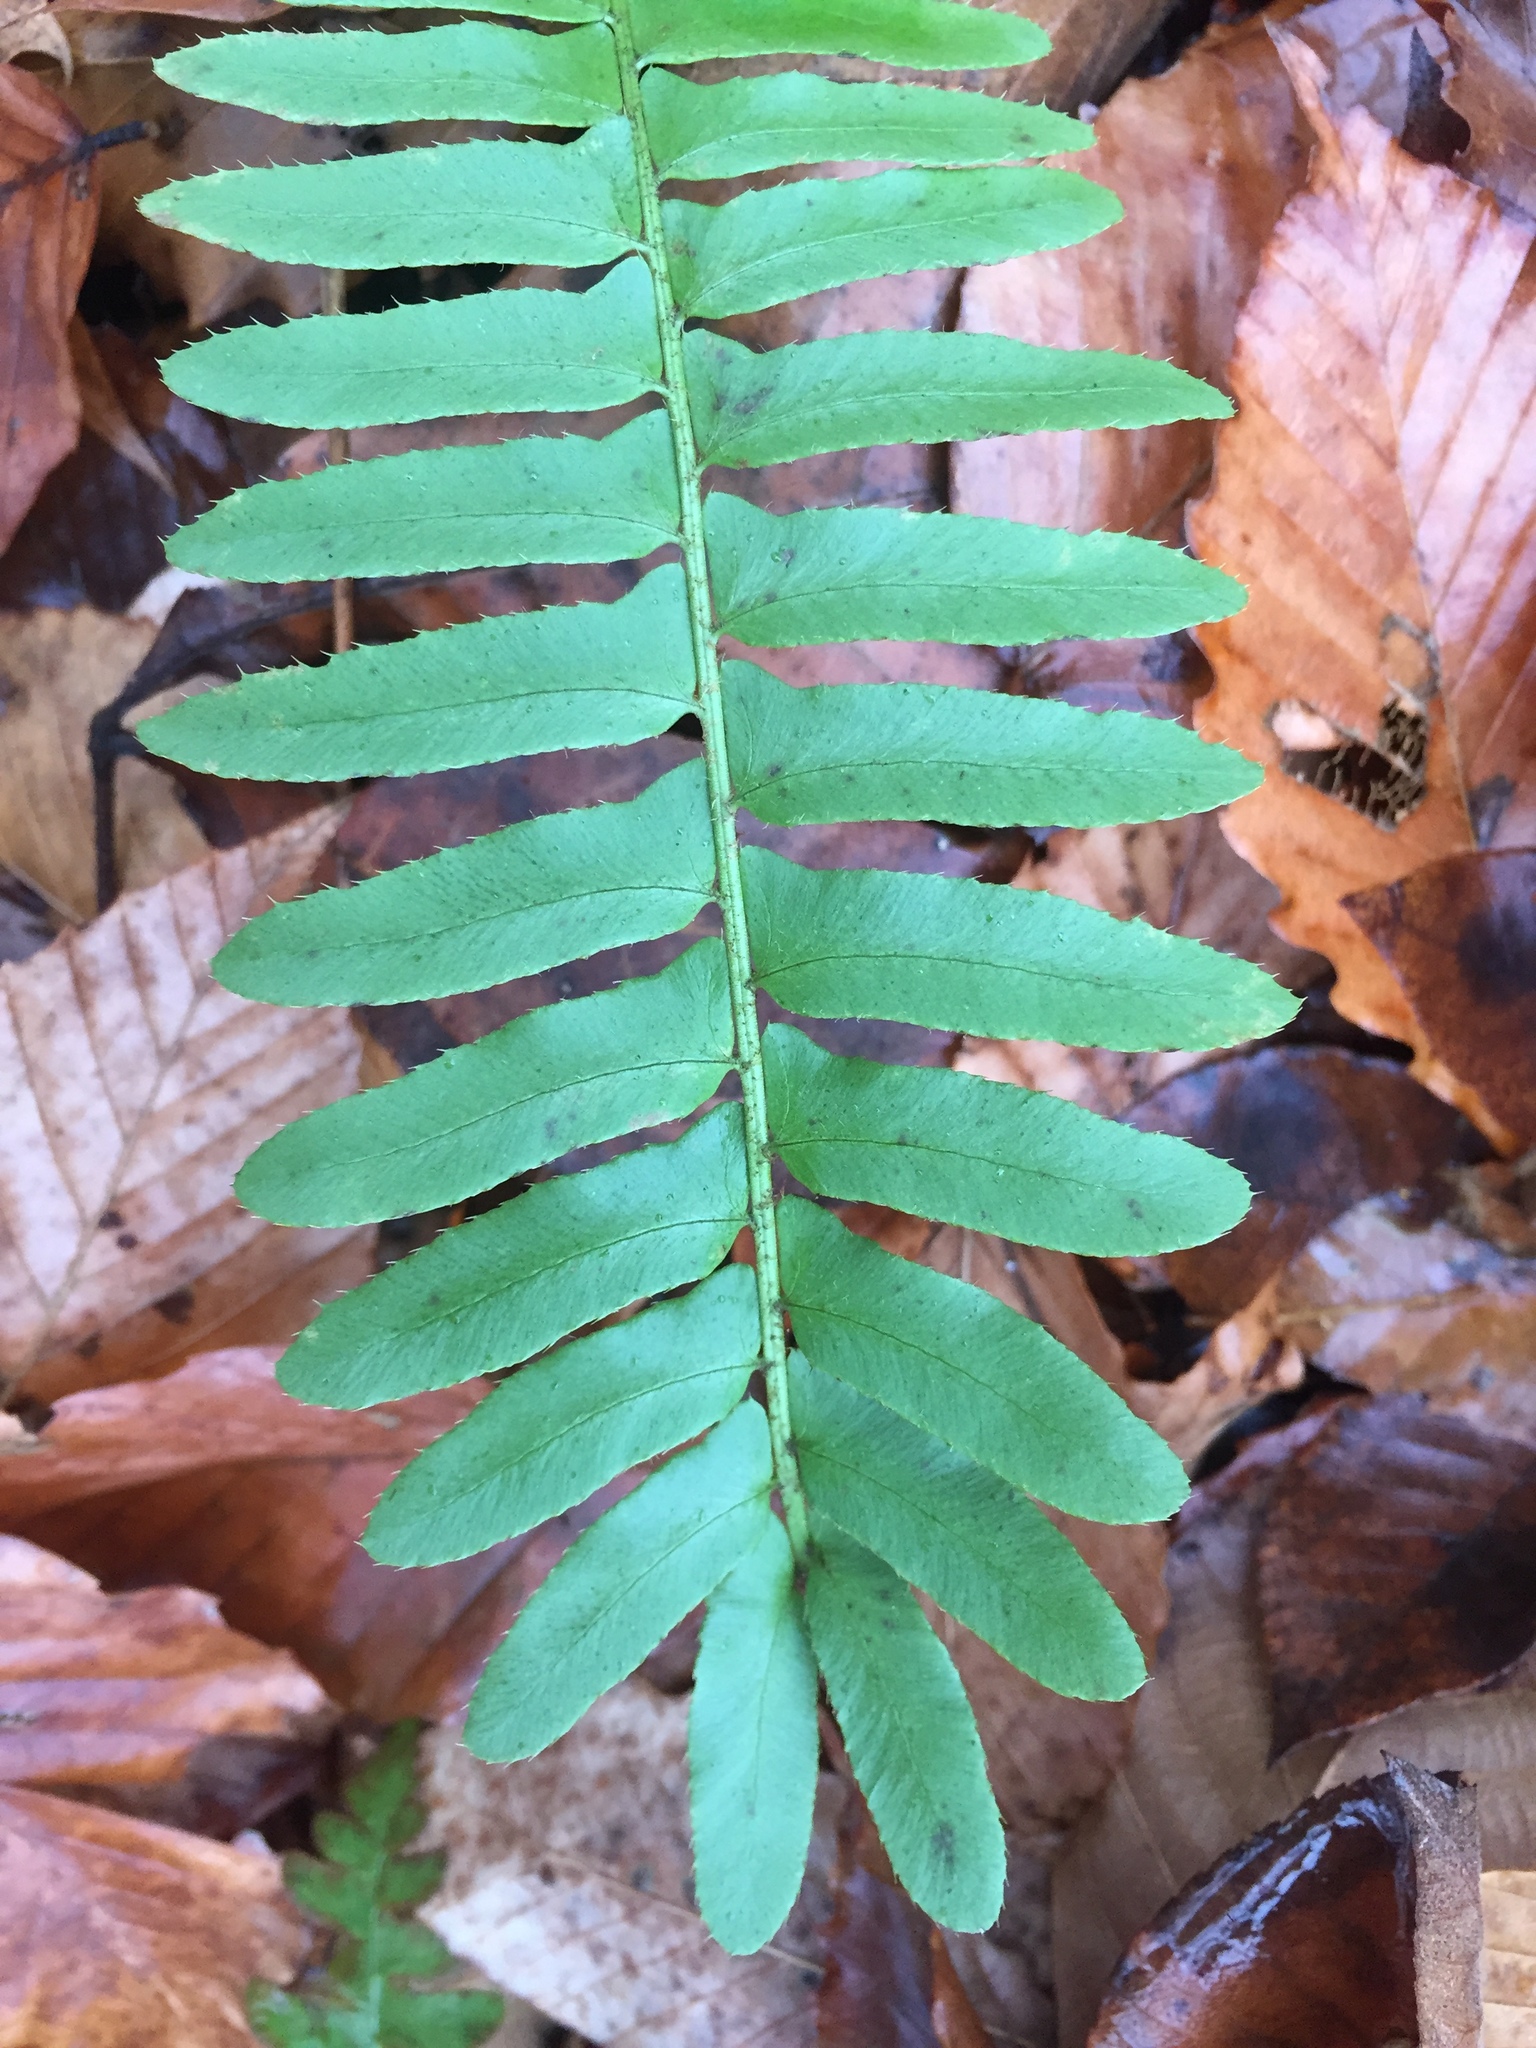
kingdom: Plantae
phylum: Tracheophyta
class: Polypodiopsida
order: Polypodiales
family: Dryopteridaceae
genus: Polystichum
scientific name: Polystichum acrostichoides
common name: Christmas fern
